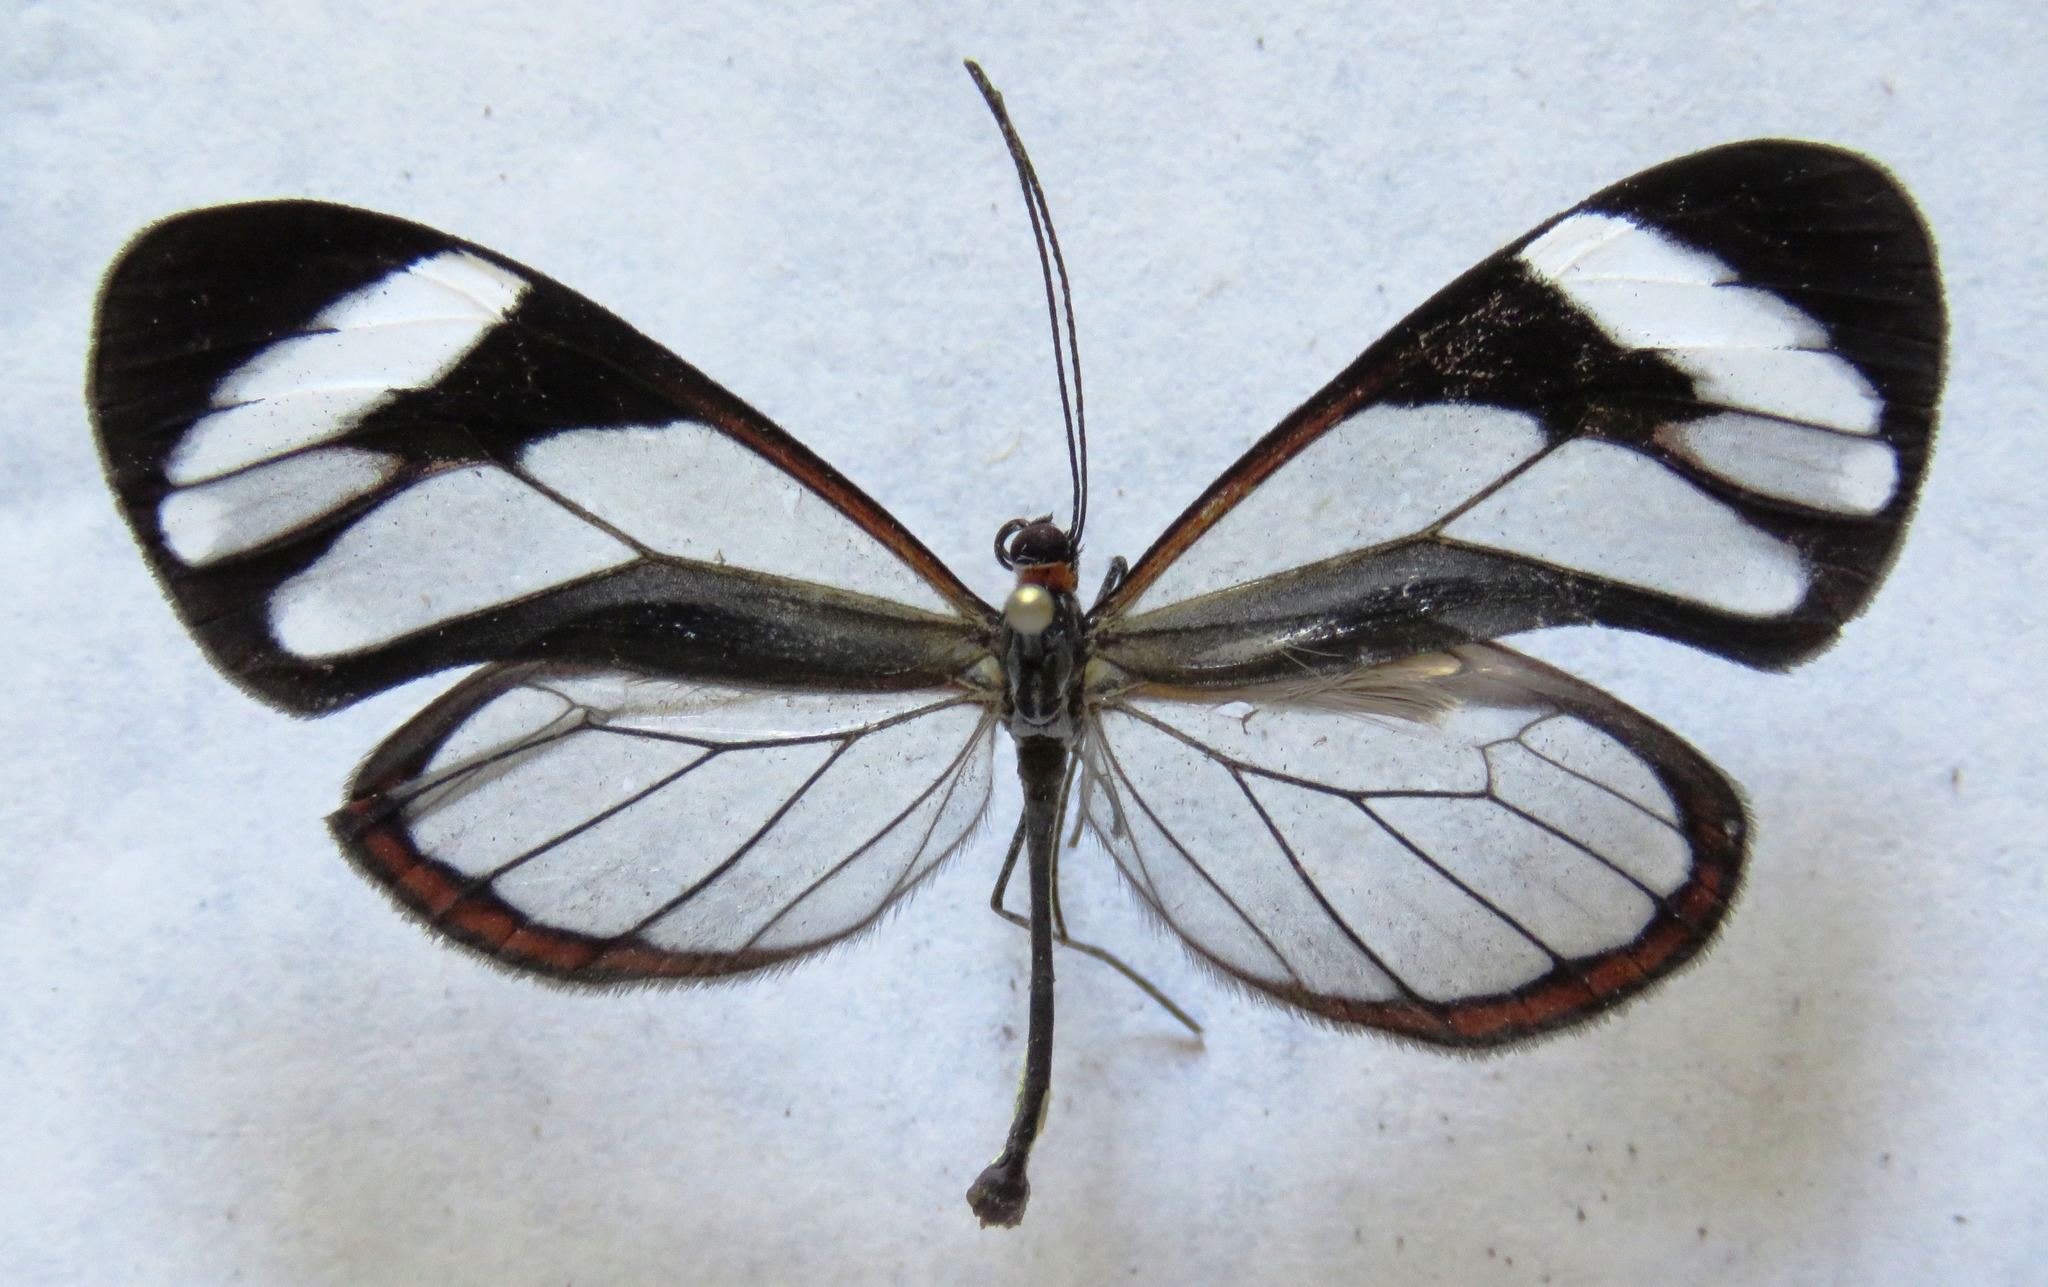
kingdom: Animalia
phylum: Arthropoda
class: Insecta
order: Lepidoptera
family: Nymphalidae
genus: Ithomia
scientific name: Ithomia patilla
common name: Patilla clearwing
